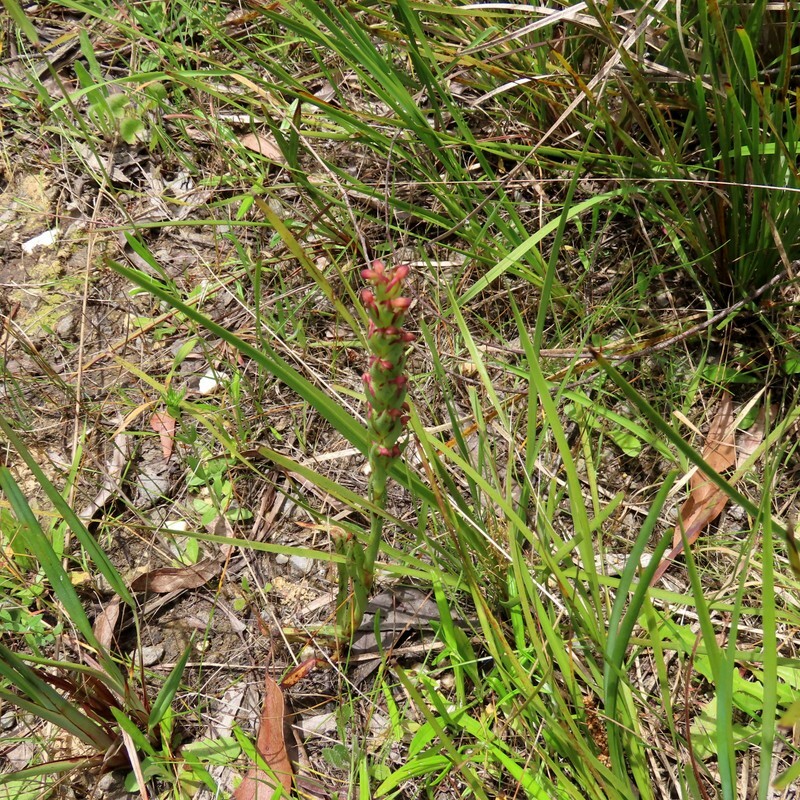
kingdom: Plantae
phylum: Tracheophyta
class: Liliopsida
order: Asparagales
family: Orchidaceae
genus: Disa
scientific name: Disa bracteata
